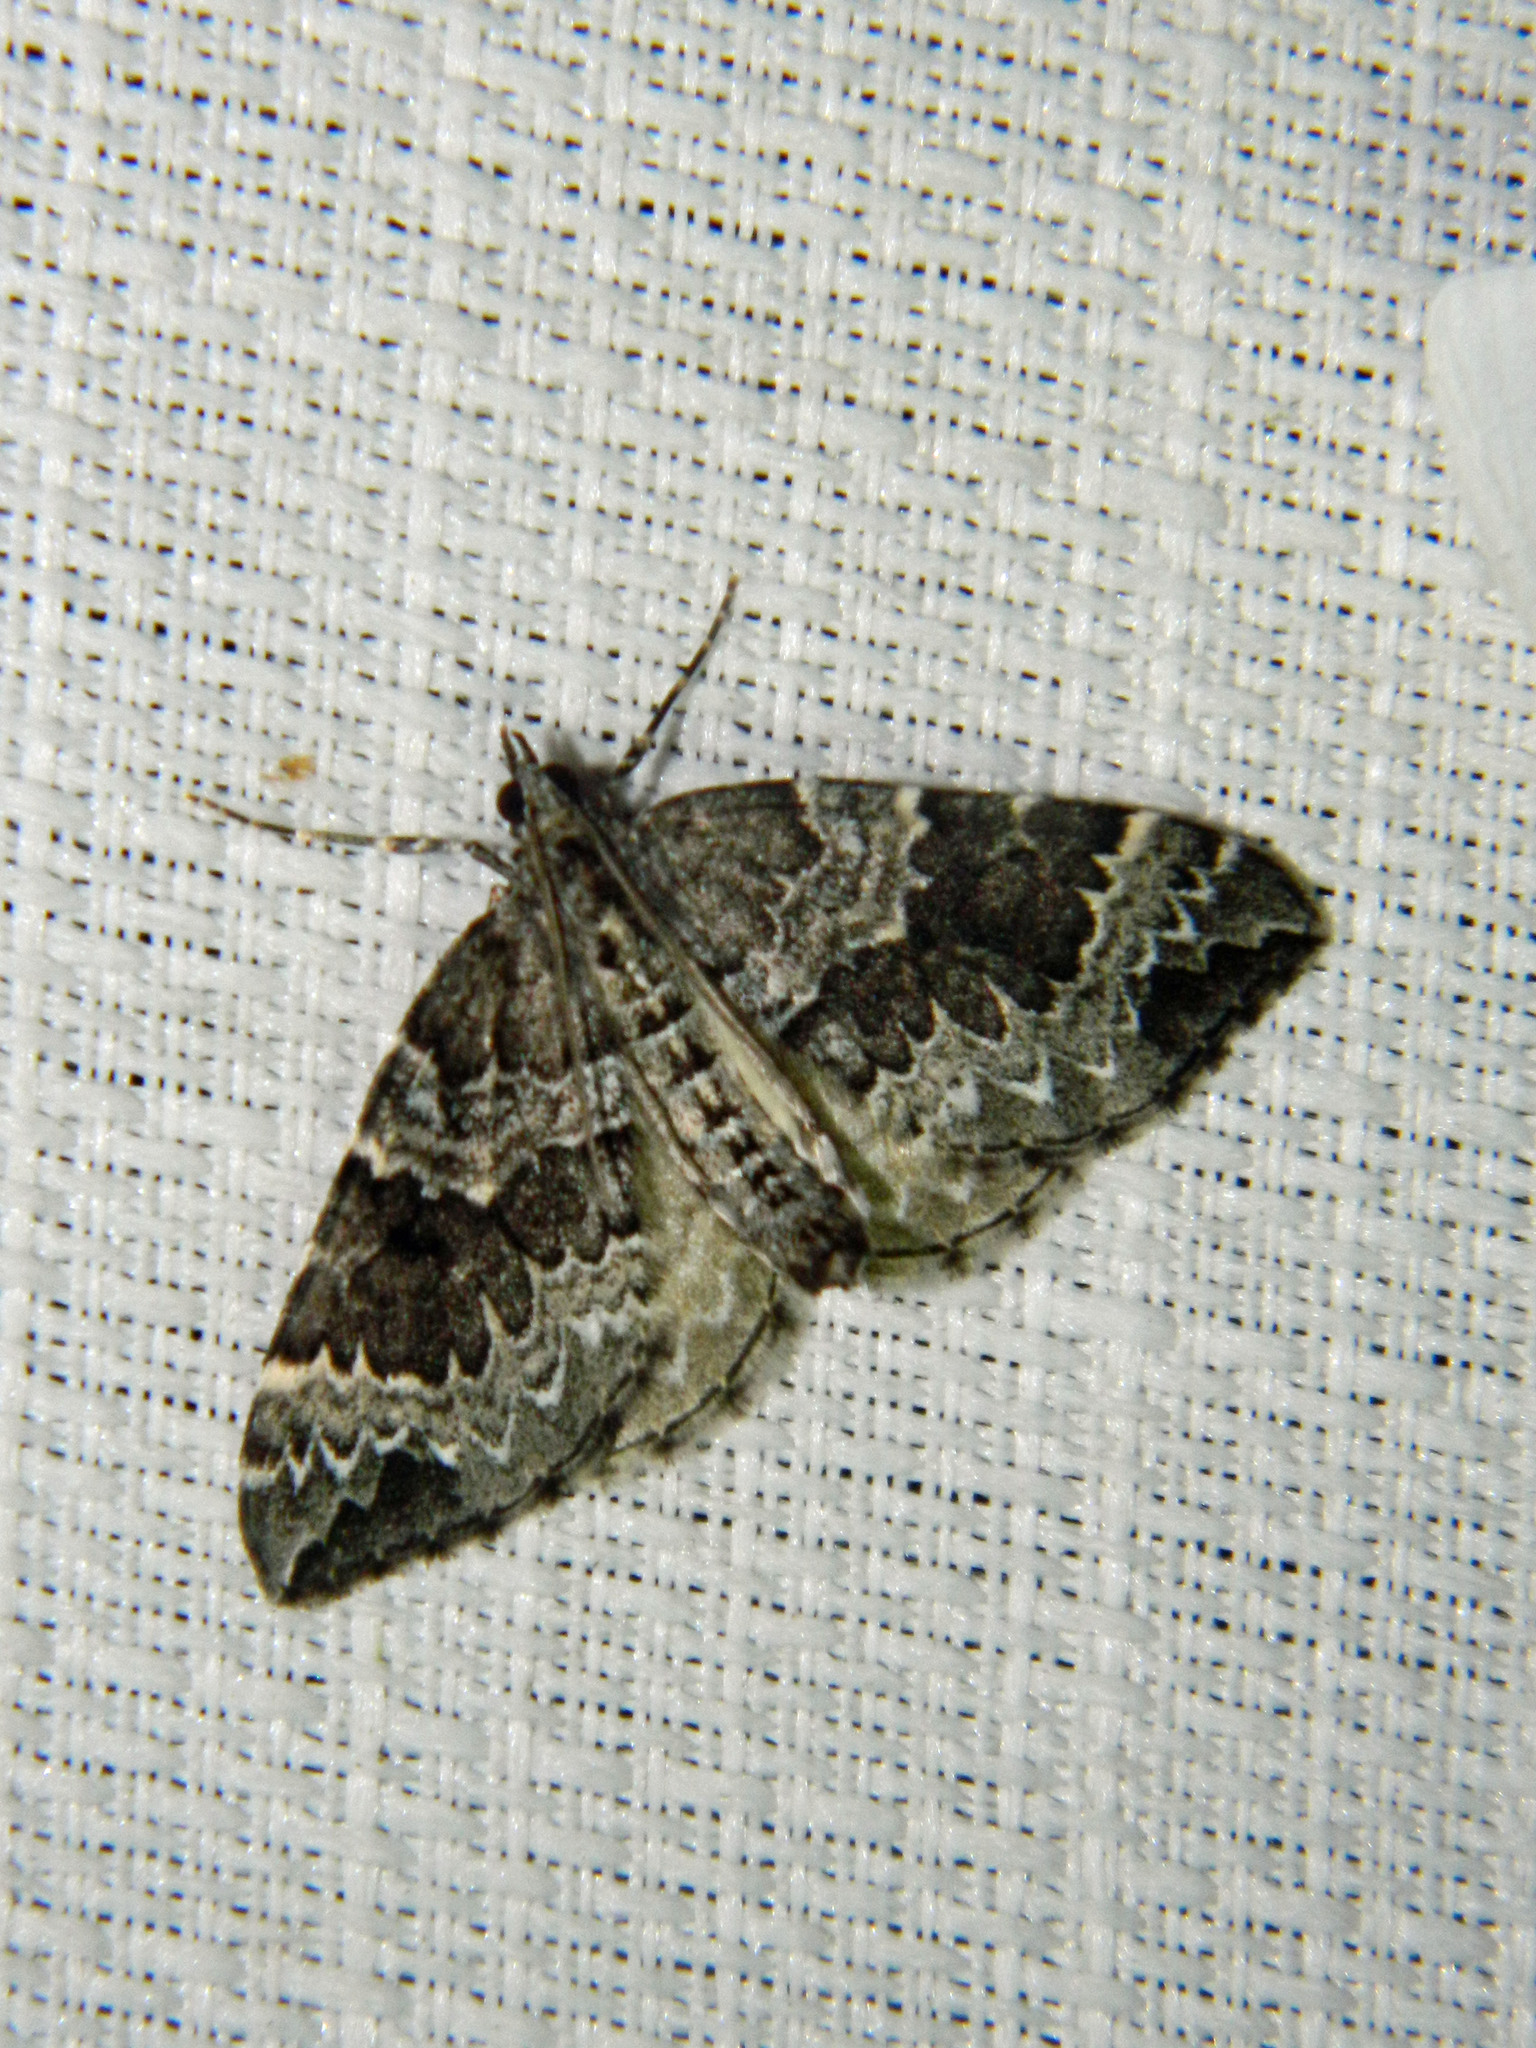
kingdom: Animalia
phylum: Arthropoda
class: Insecta
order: Lepidoptera
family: Geometridae
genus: Eulithis
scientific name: Eulithis explanata
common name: White eulithis
